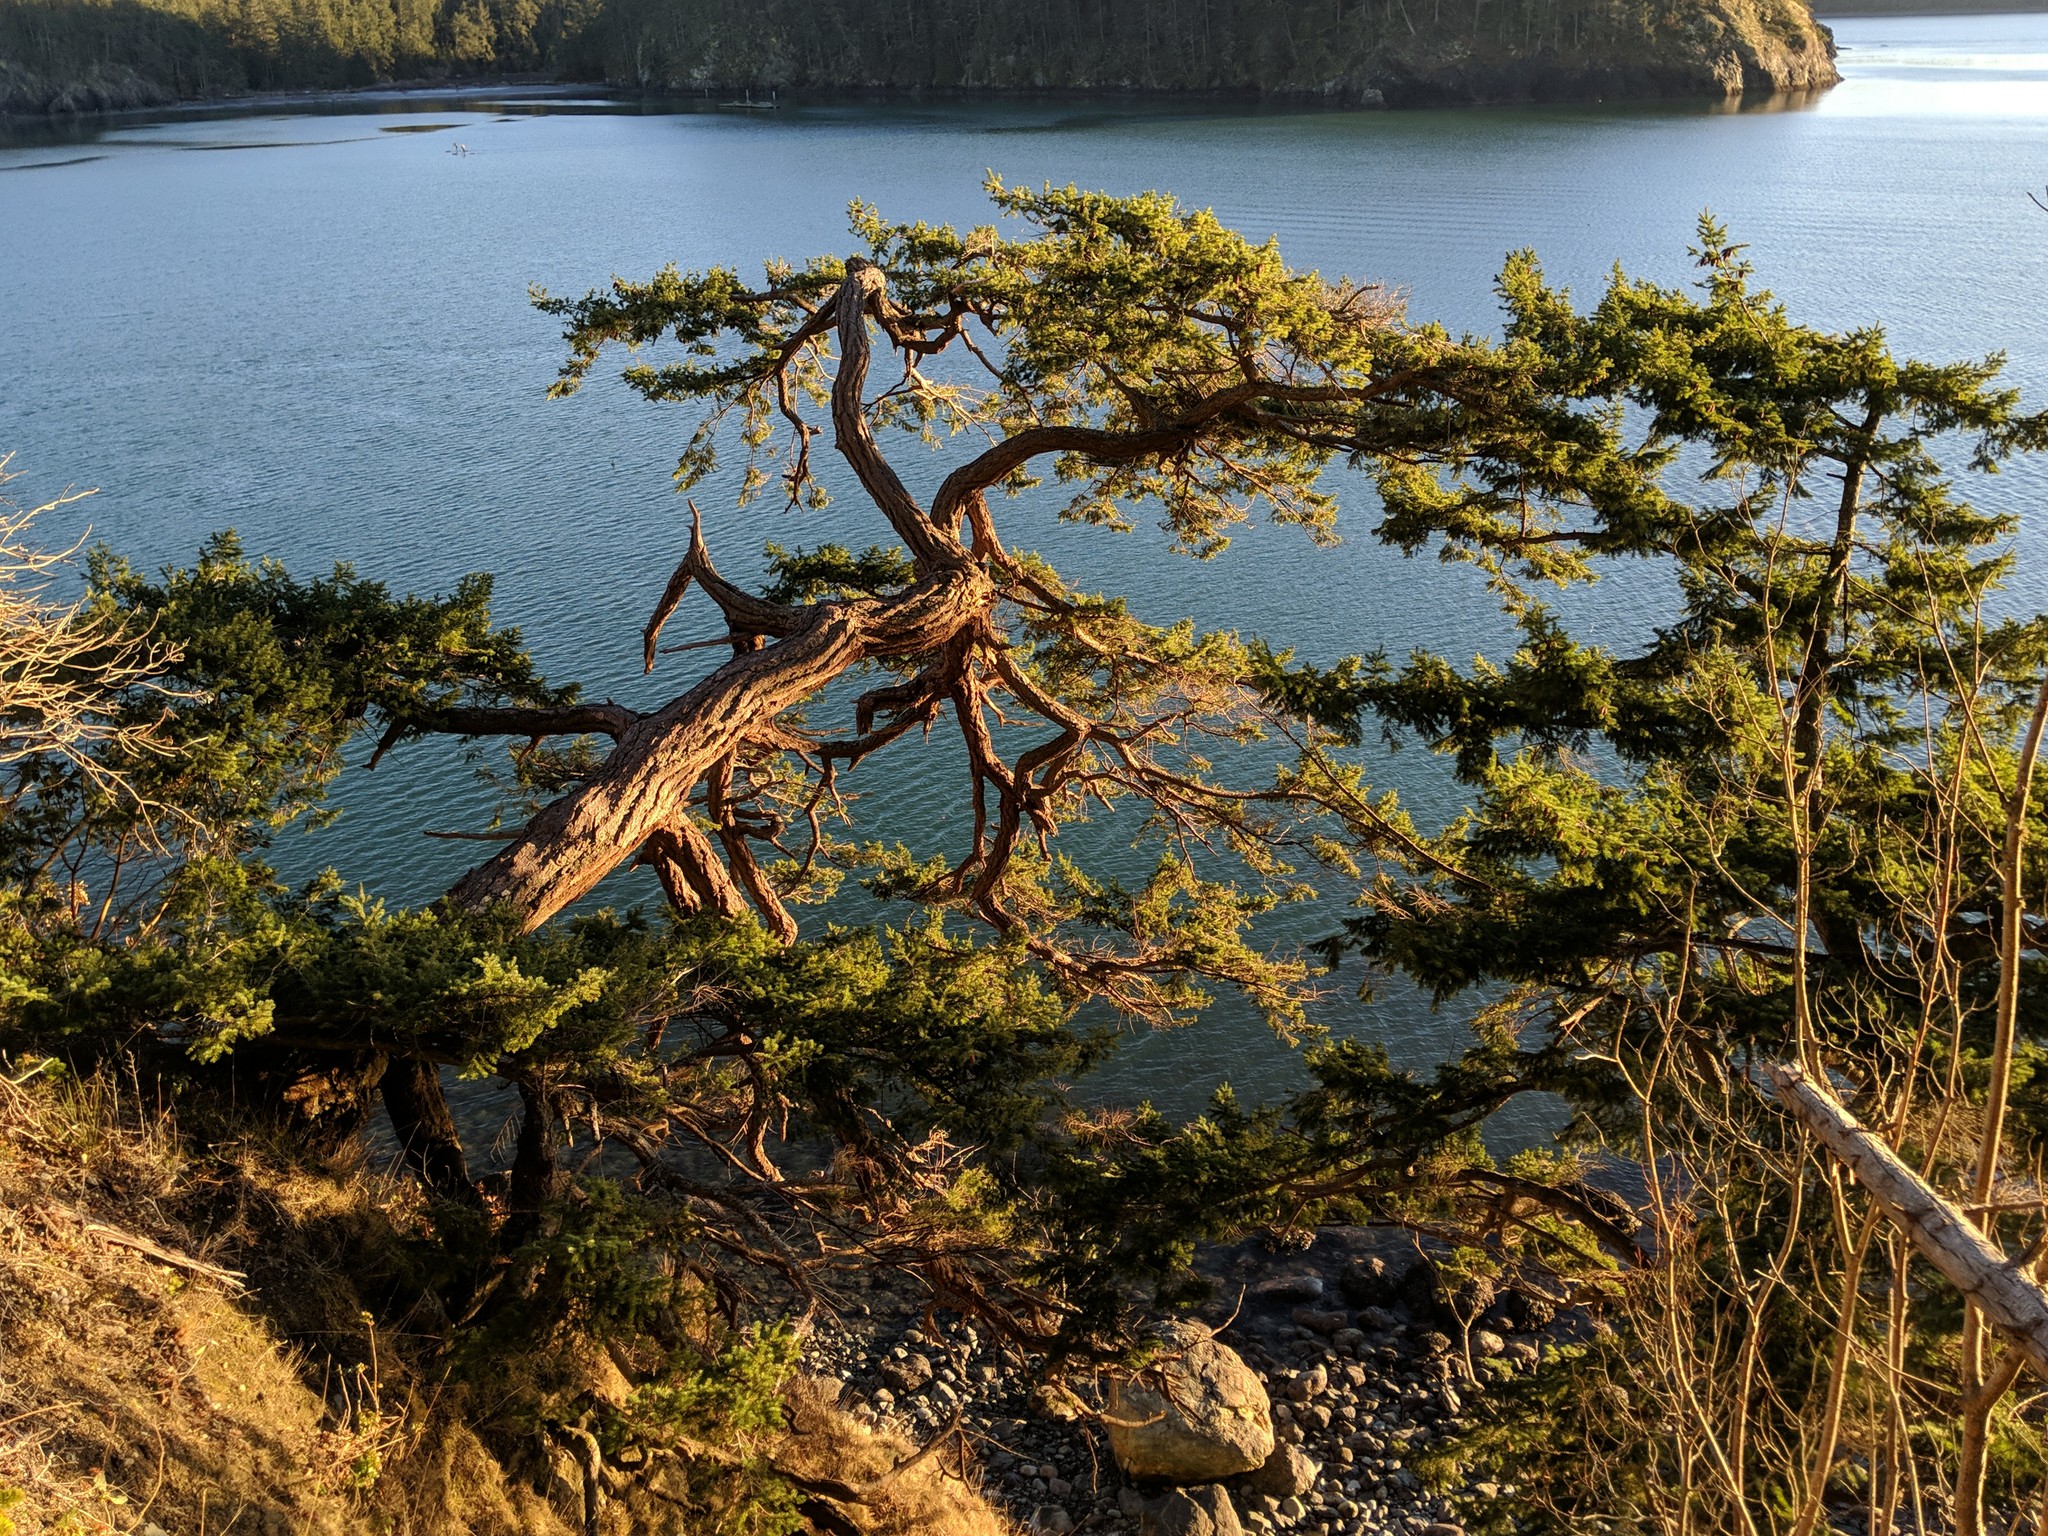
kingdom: Plantae
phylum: Tracheophyta
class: Pinopsida
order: Pinales
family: Pinaceae
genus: Pseudotsuga
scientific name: Pseudotsuga menziesii
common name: Douglas fir
